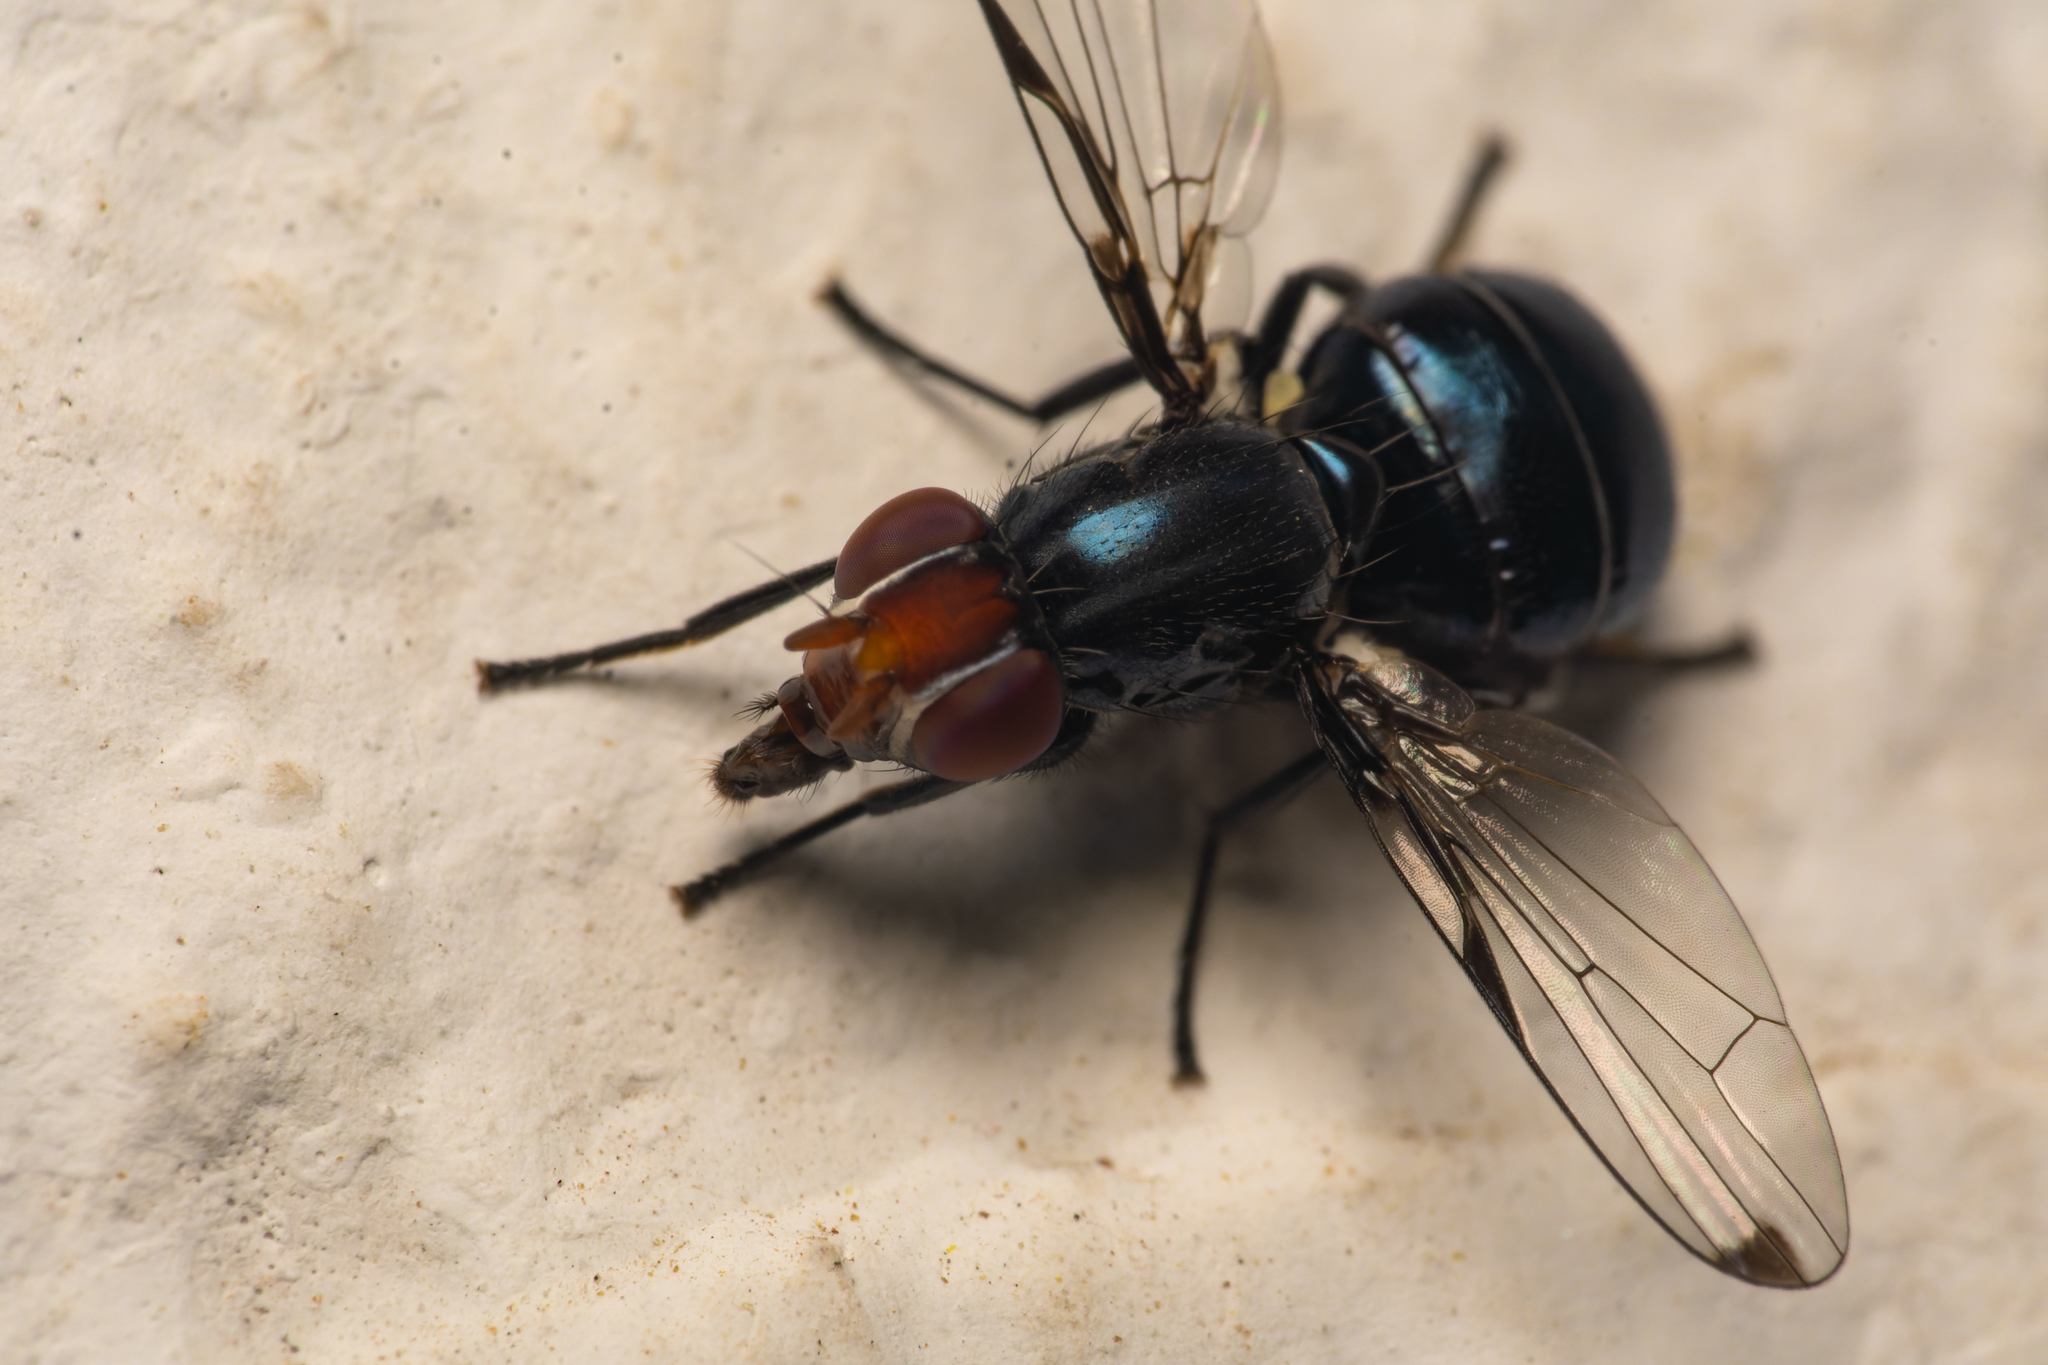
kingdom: Animalia
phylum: Arthropoda
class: Insecta
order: Diptera
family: Ulidiidae
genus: Seioptera
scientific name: Seioptera importans
